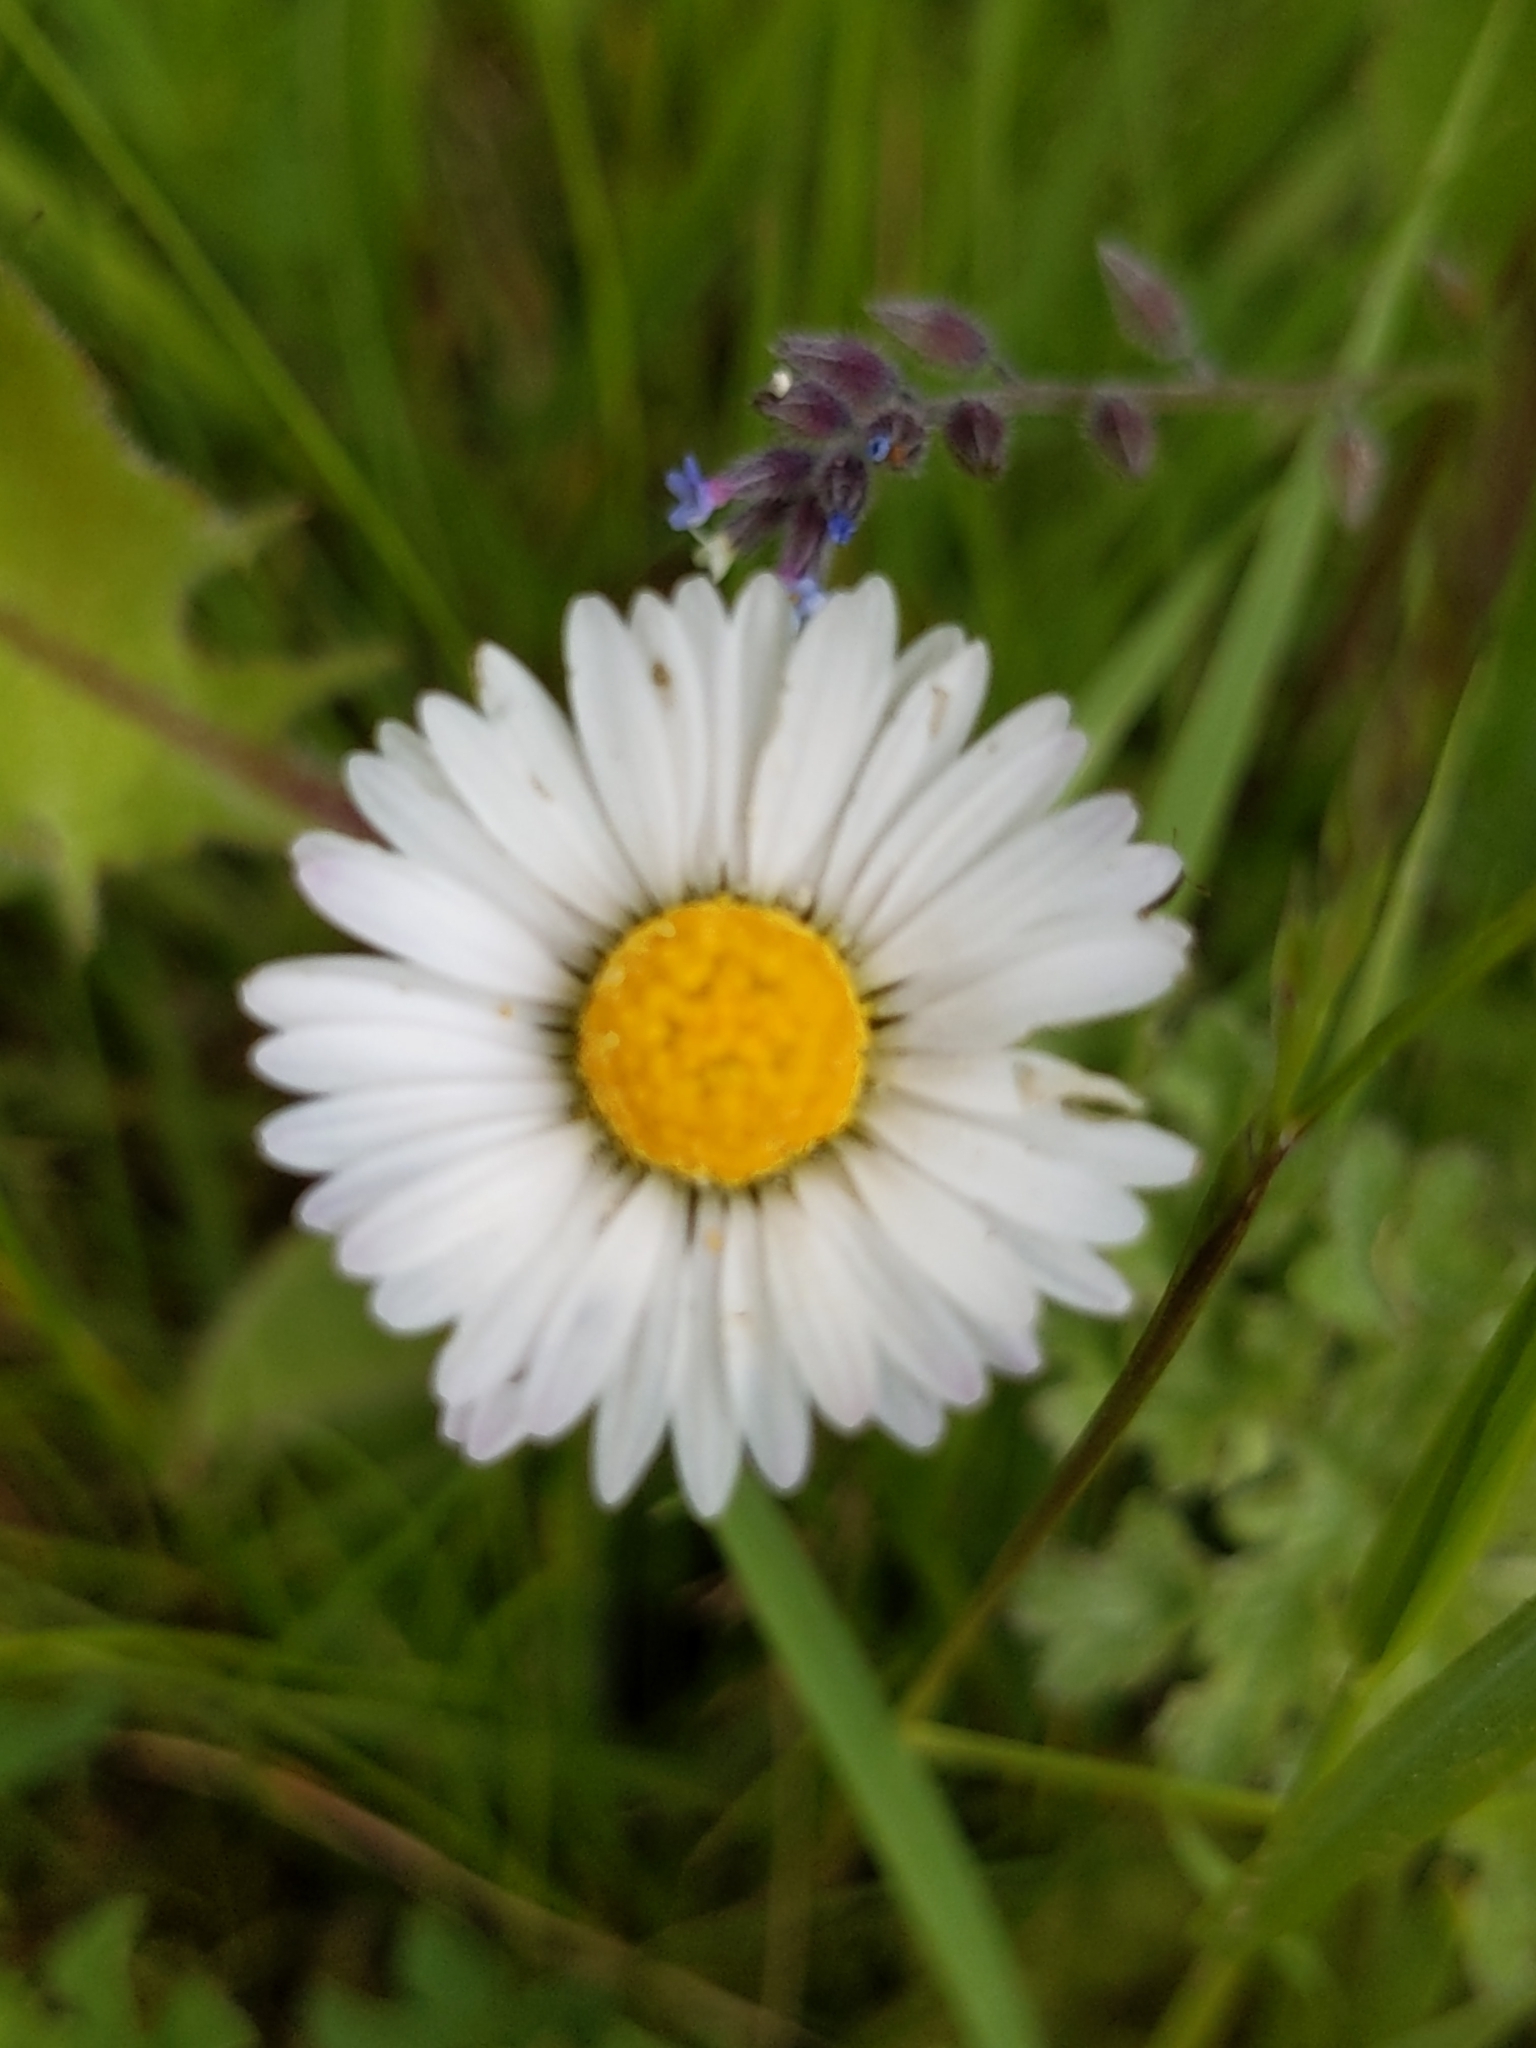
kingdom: Plantae
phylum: Tracheophyta
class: Magnoliopsida
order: Asterales
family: Asteraceae
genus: Bellis
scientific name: Bellis perennis
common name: Lawndaisy
